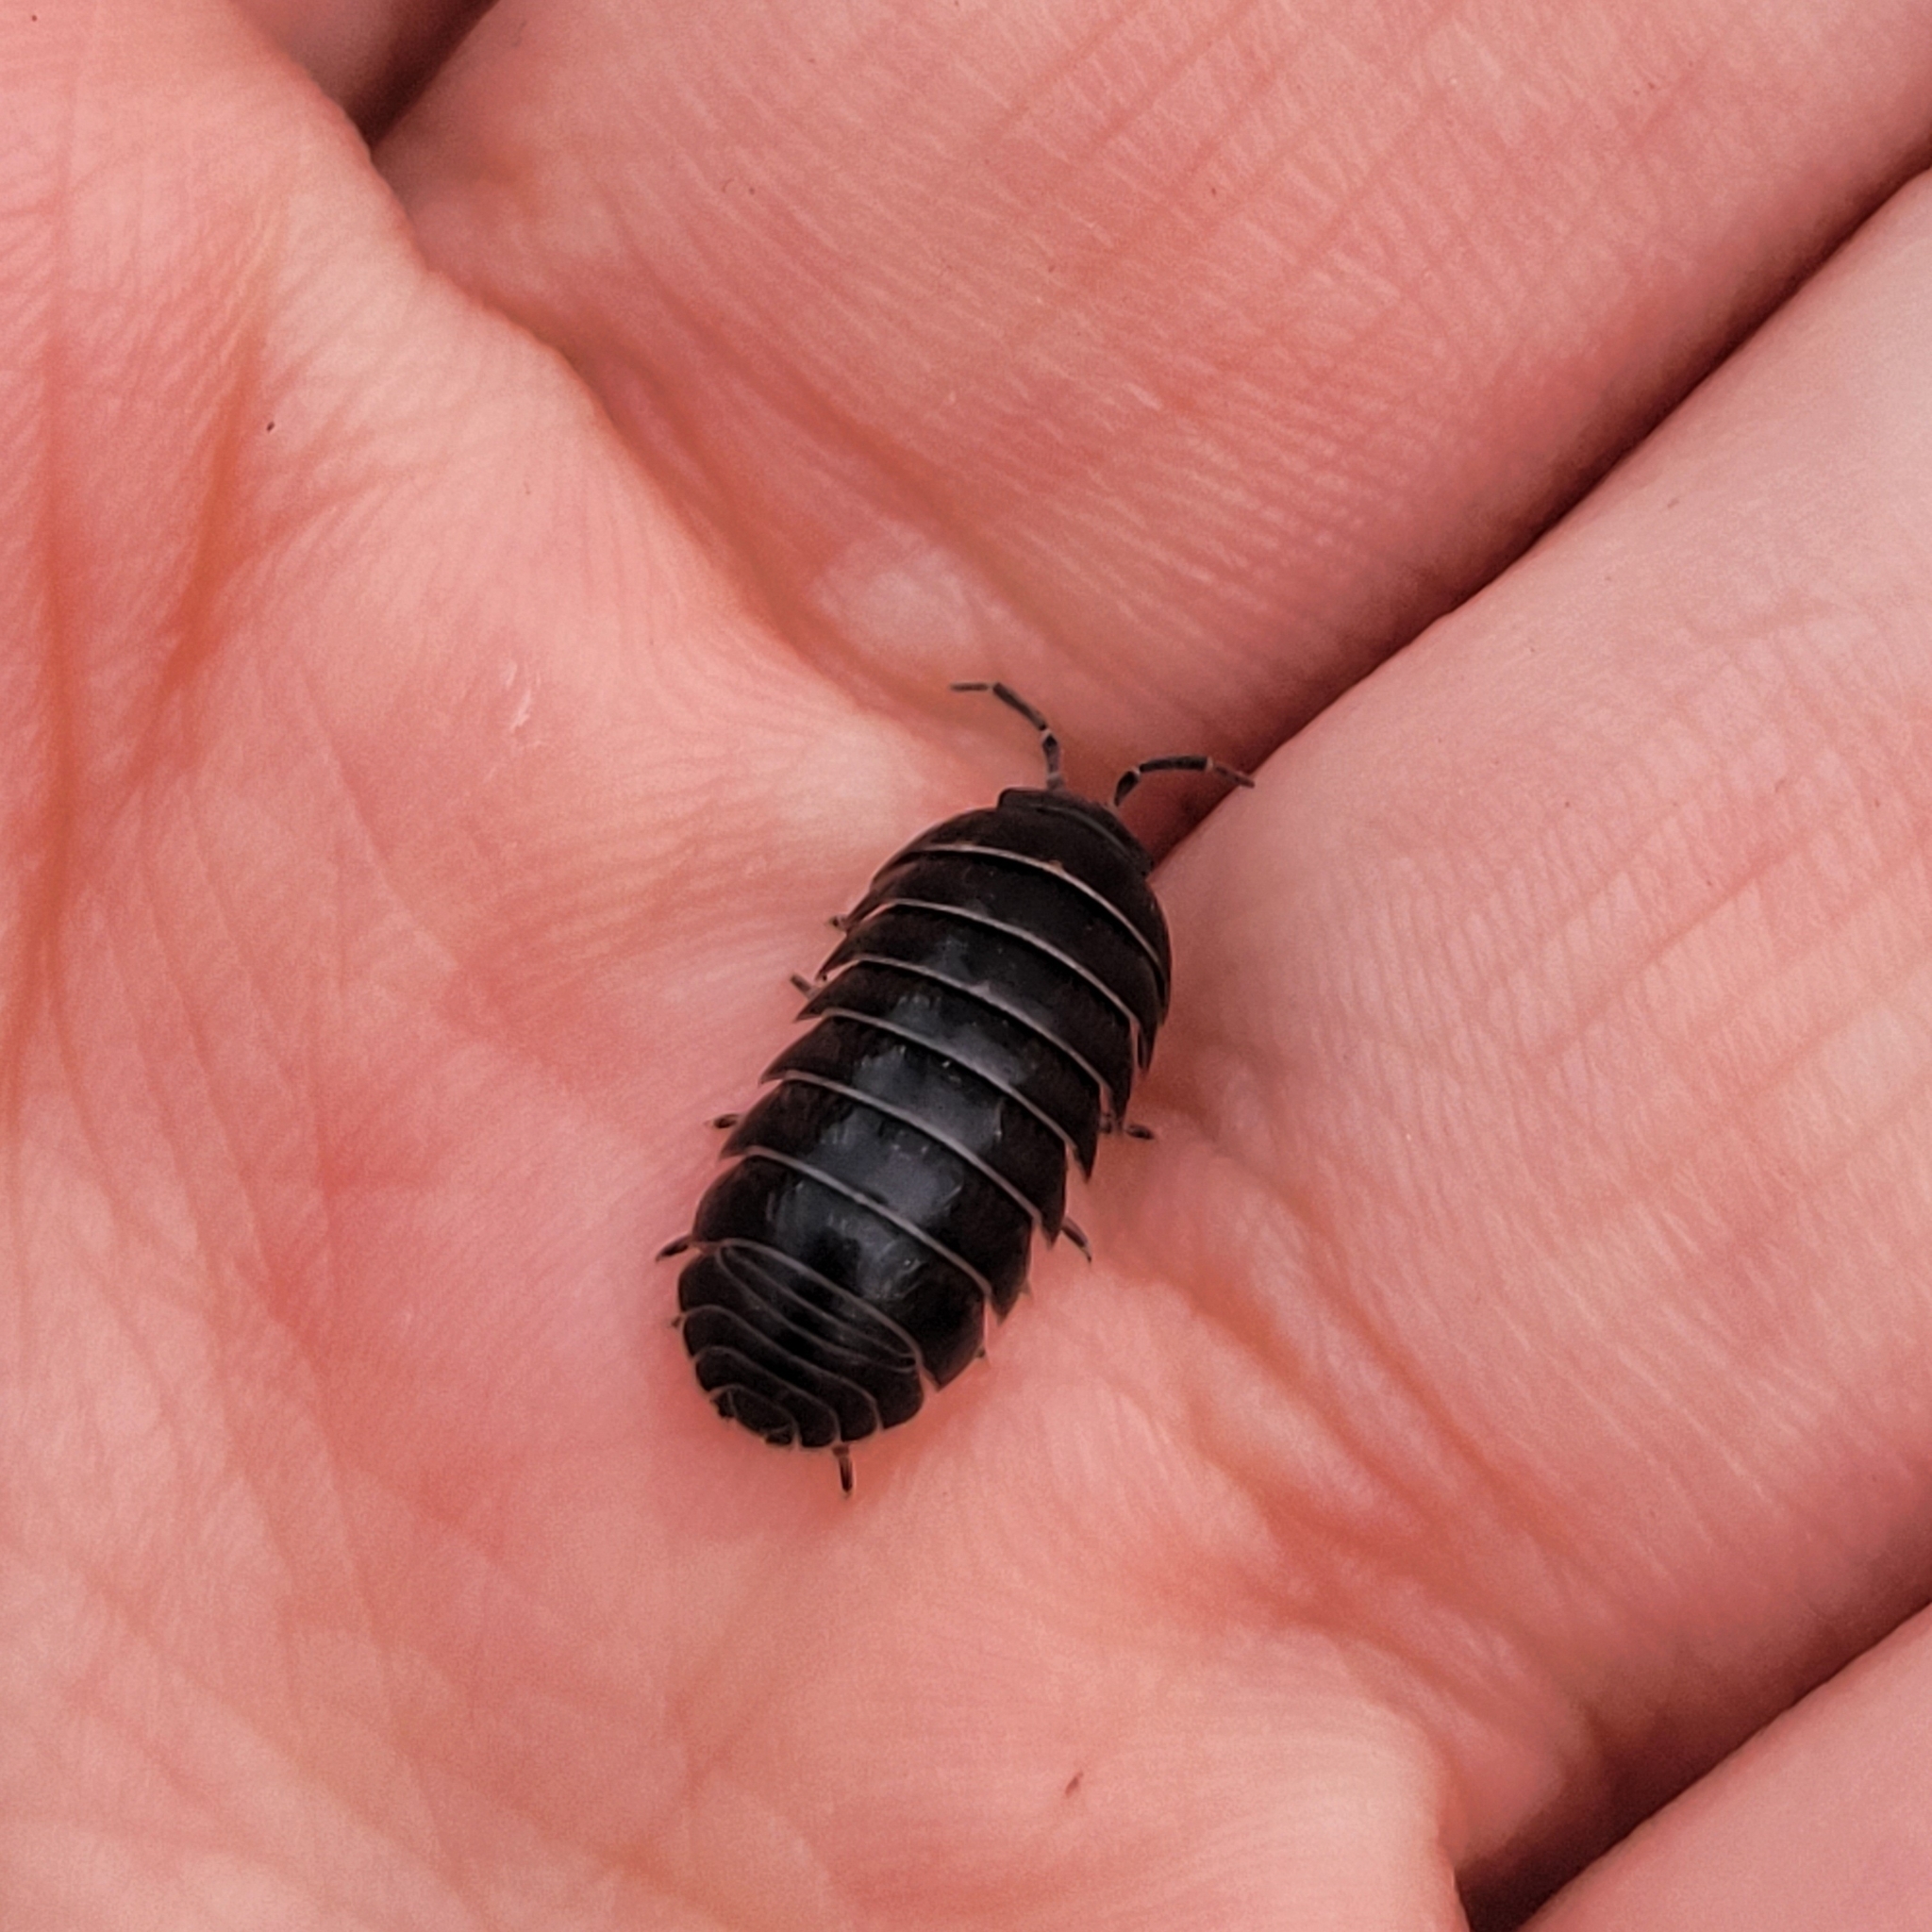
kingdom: Animalia
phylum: Arthropoda
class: Malacostraca
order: Isopoda
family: Armadillidiidae
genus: Armadillidium
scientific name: Armadillidium vulgare
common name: Common pill woodlouse
